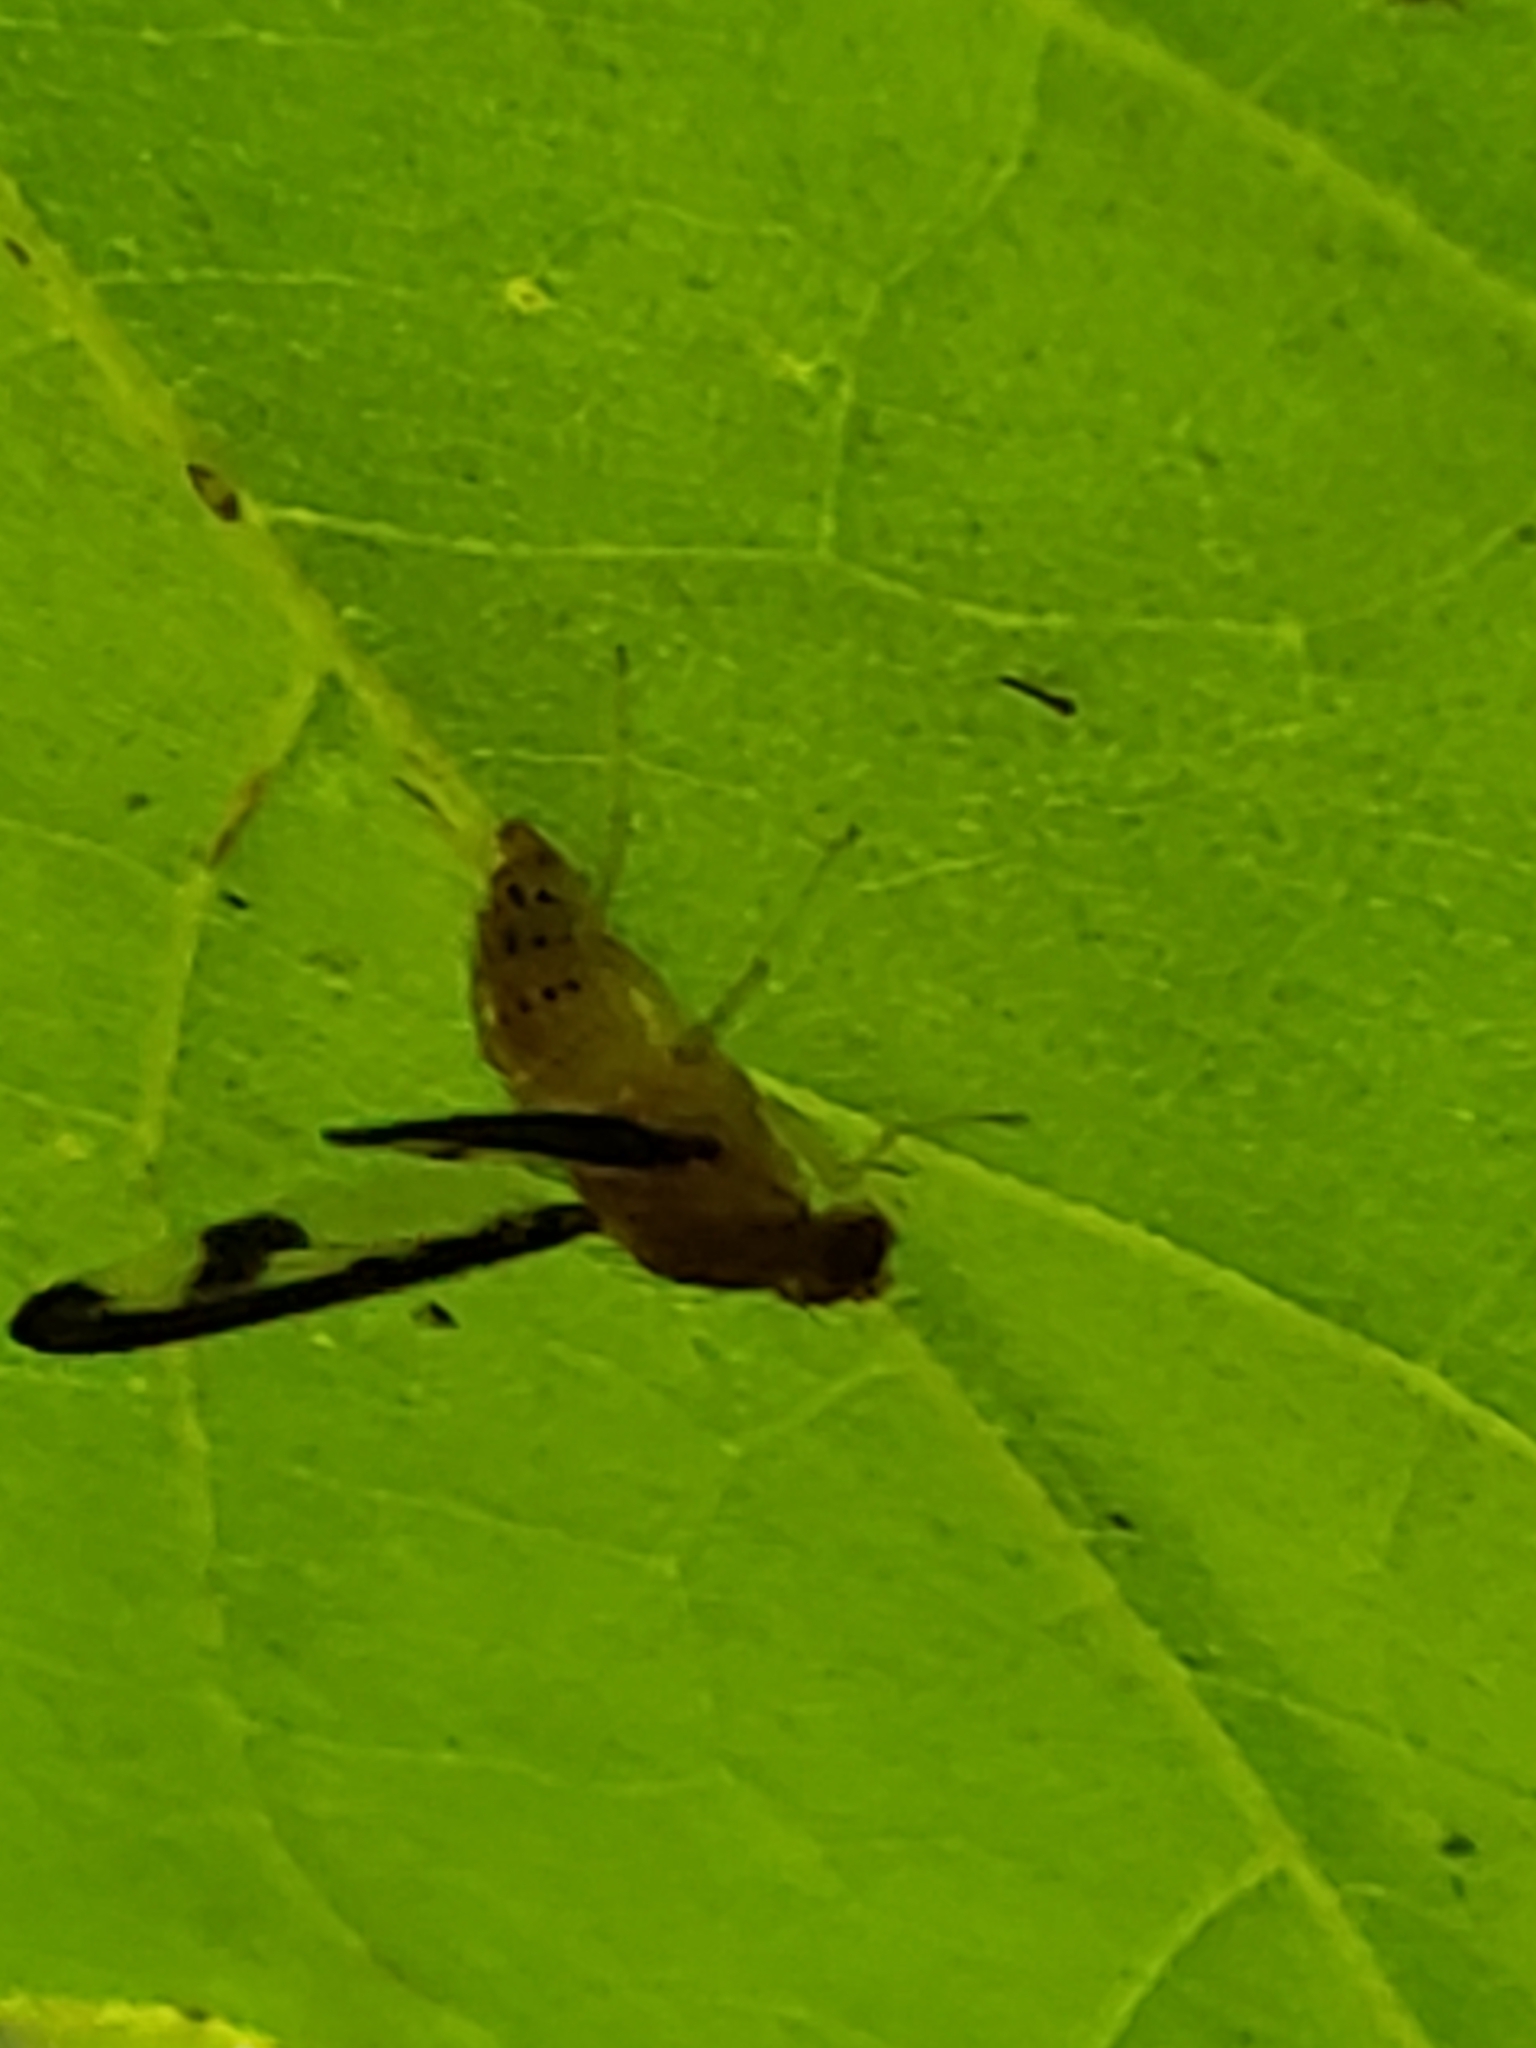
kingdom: Animalia
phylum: Arthropoda
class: Insecta
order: Diptera
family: Pallopteridae
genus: Toxonevra
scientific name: Toxonevra superba
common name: Antlered flutter fly
